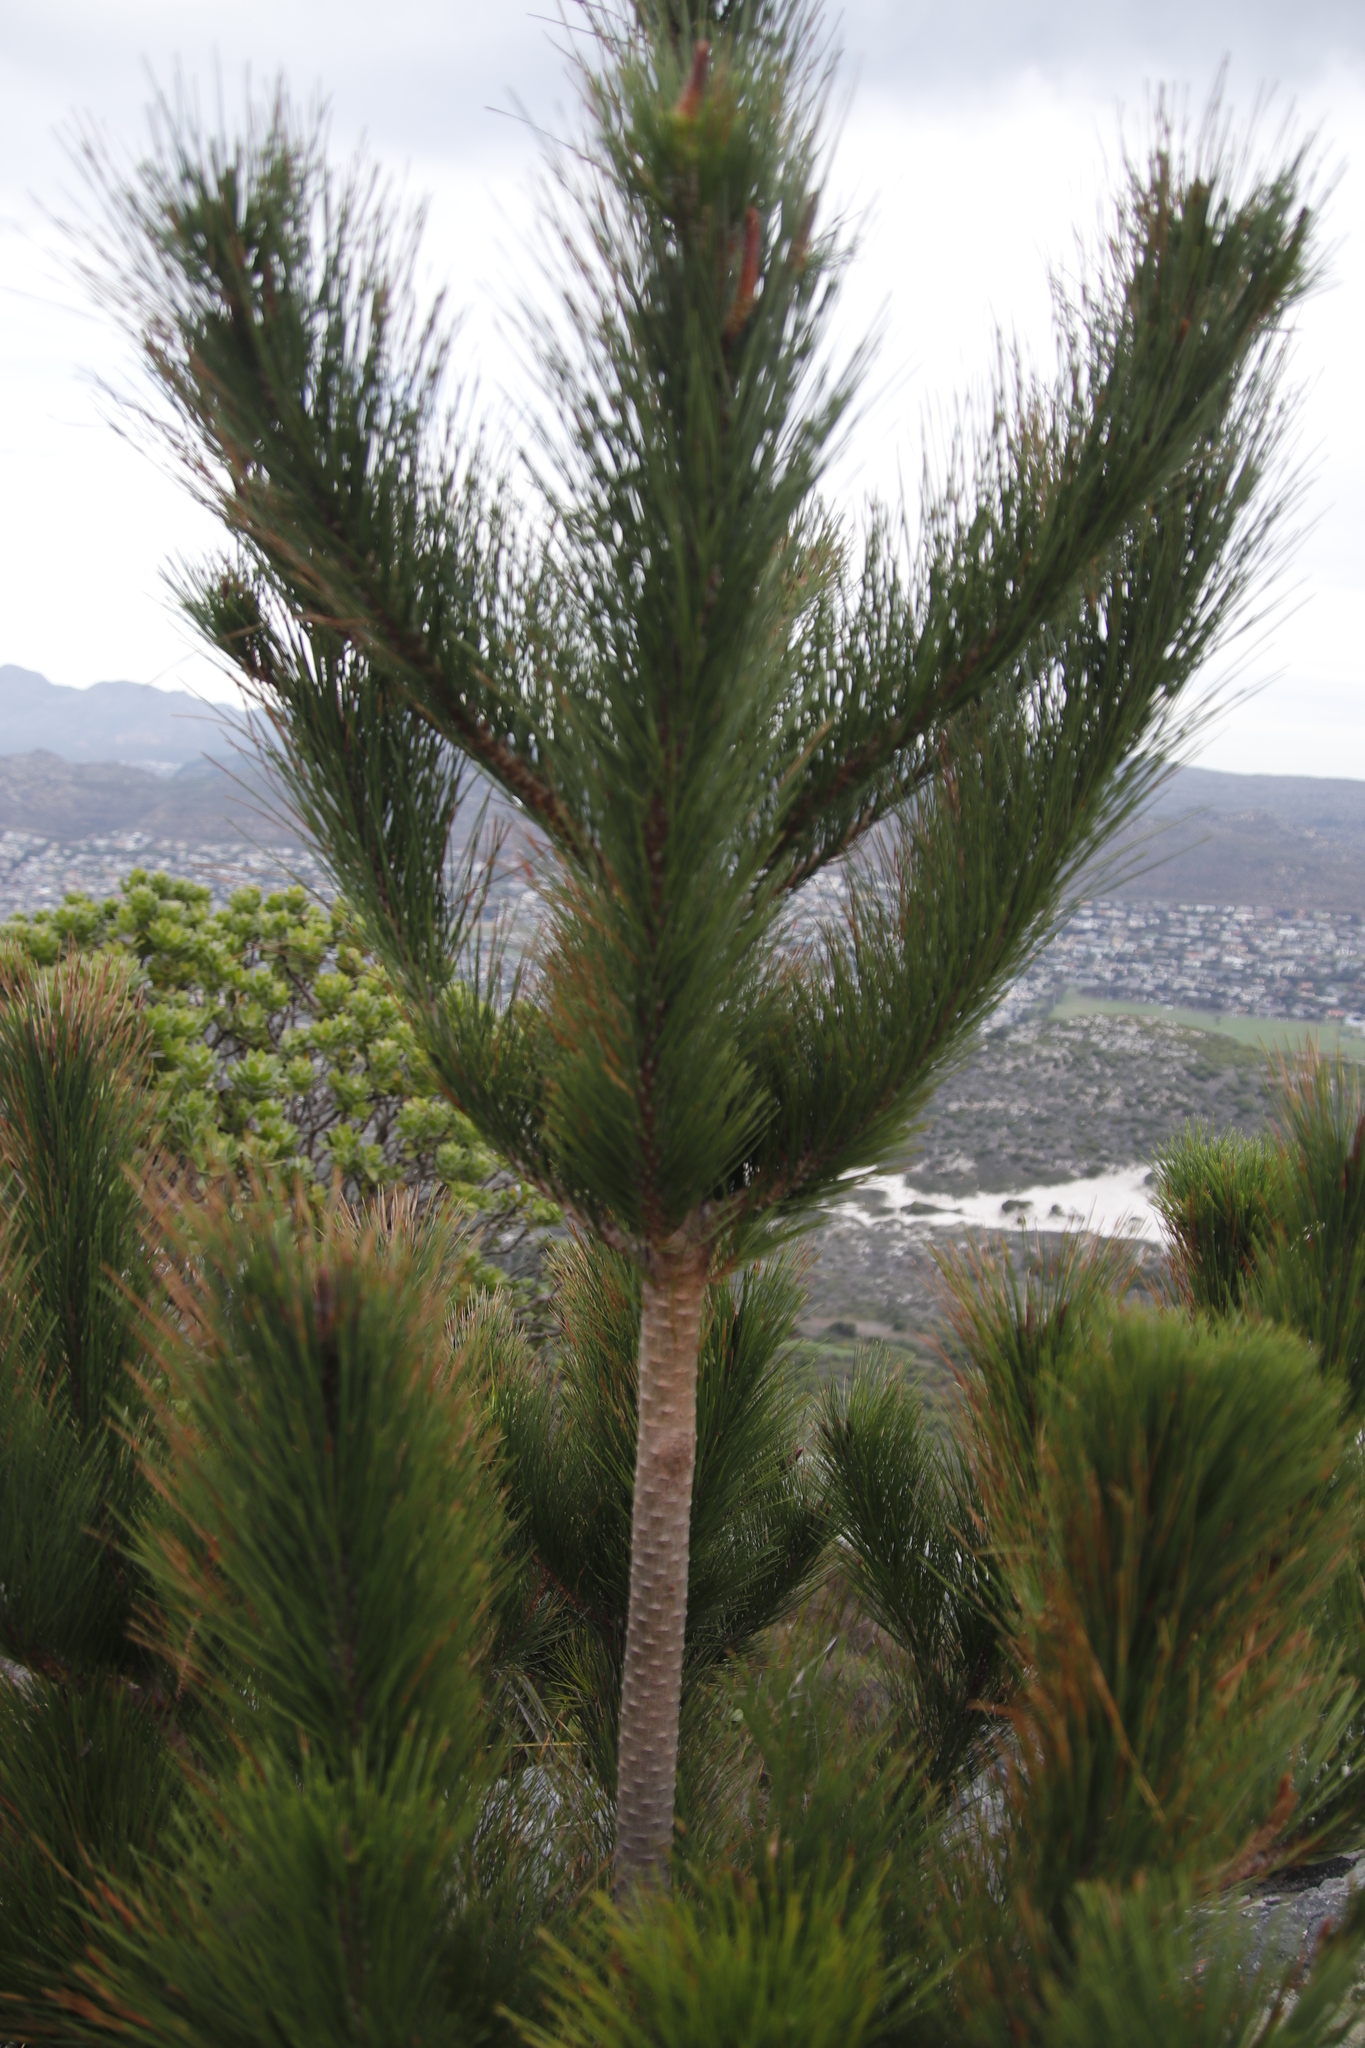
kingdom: Plantae
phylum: Tracheophyta
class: Pinopsida
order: Pinales
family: Pinaceae
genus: Pinus
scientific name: Pinus radiata
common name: Monterey pine
